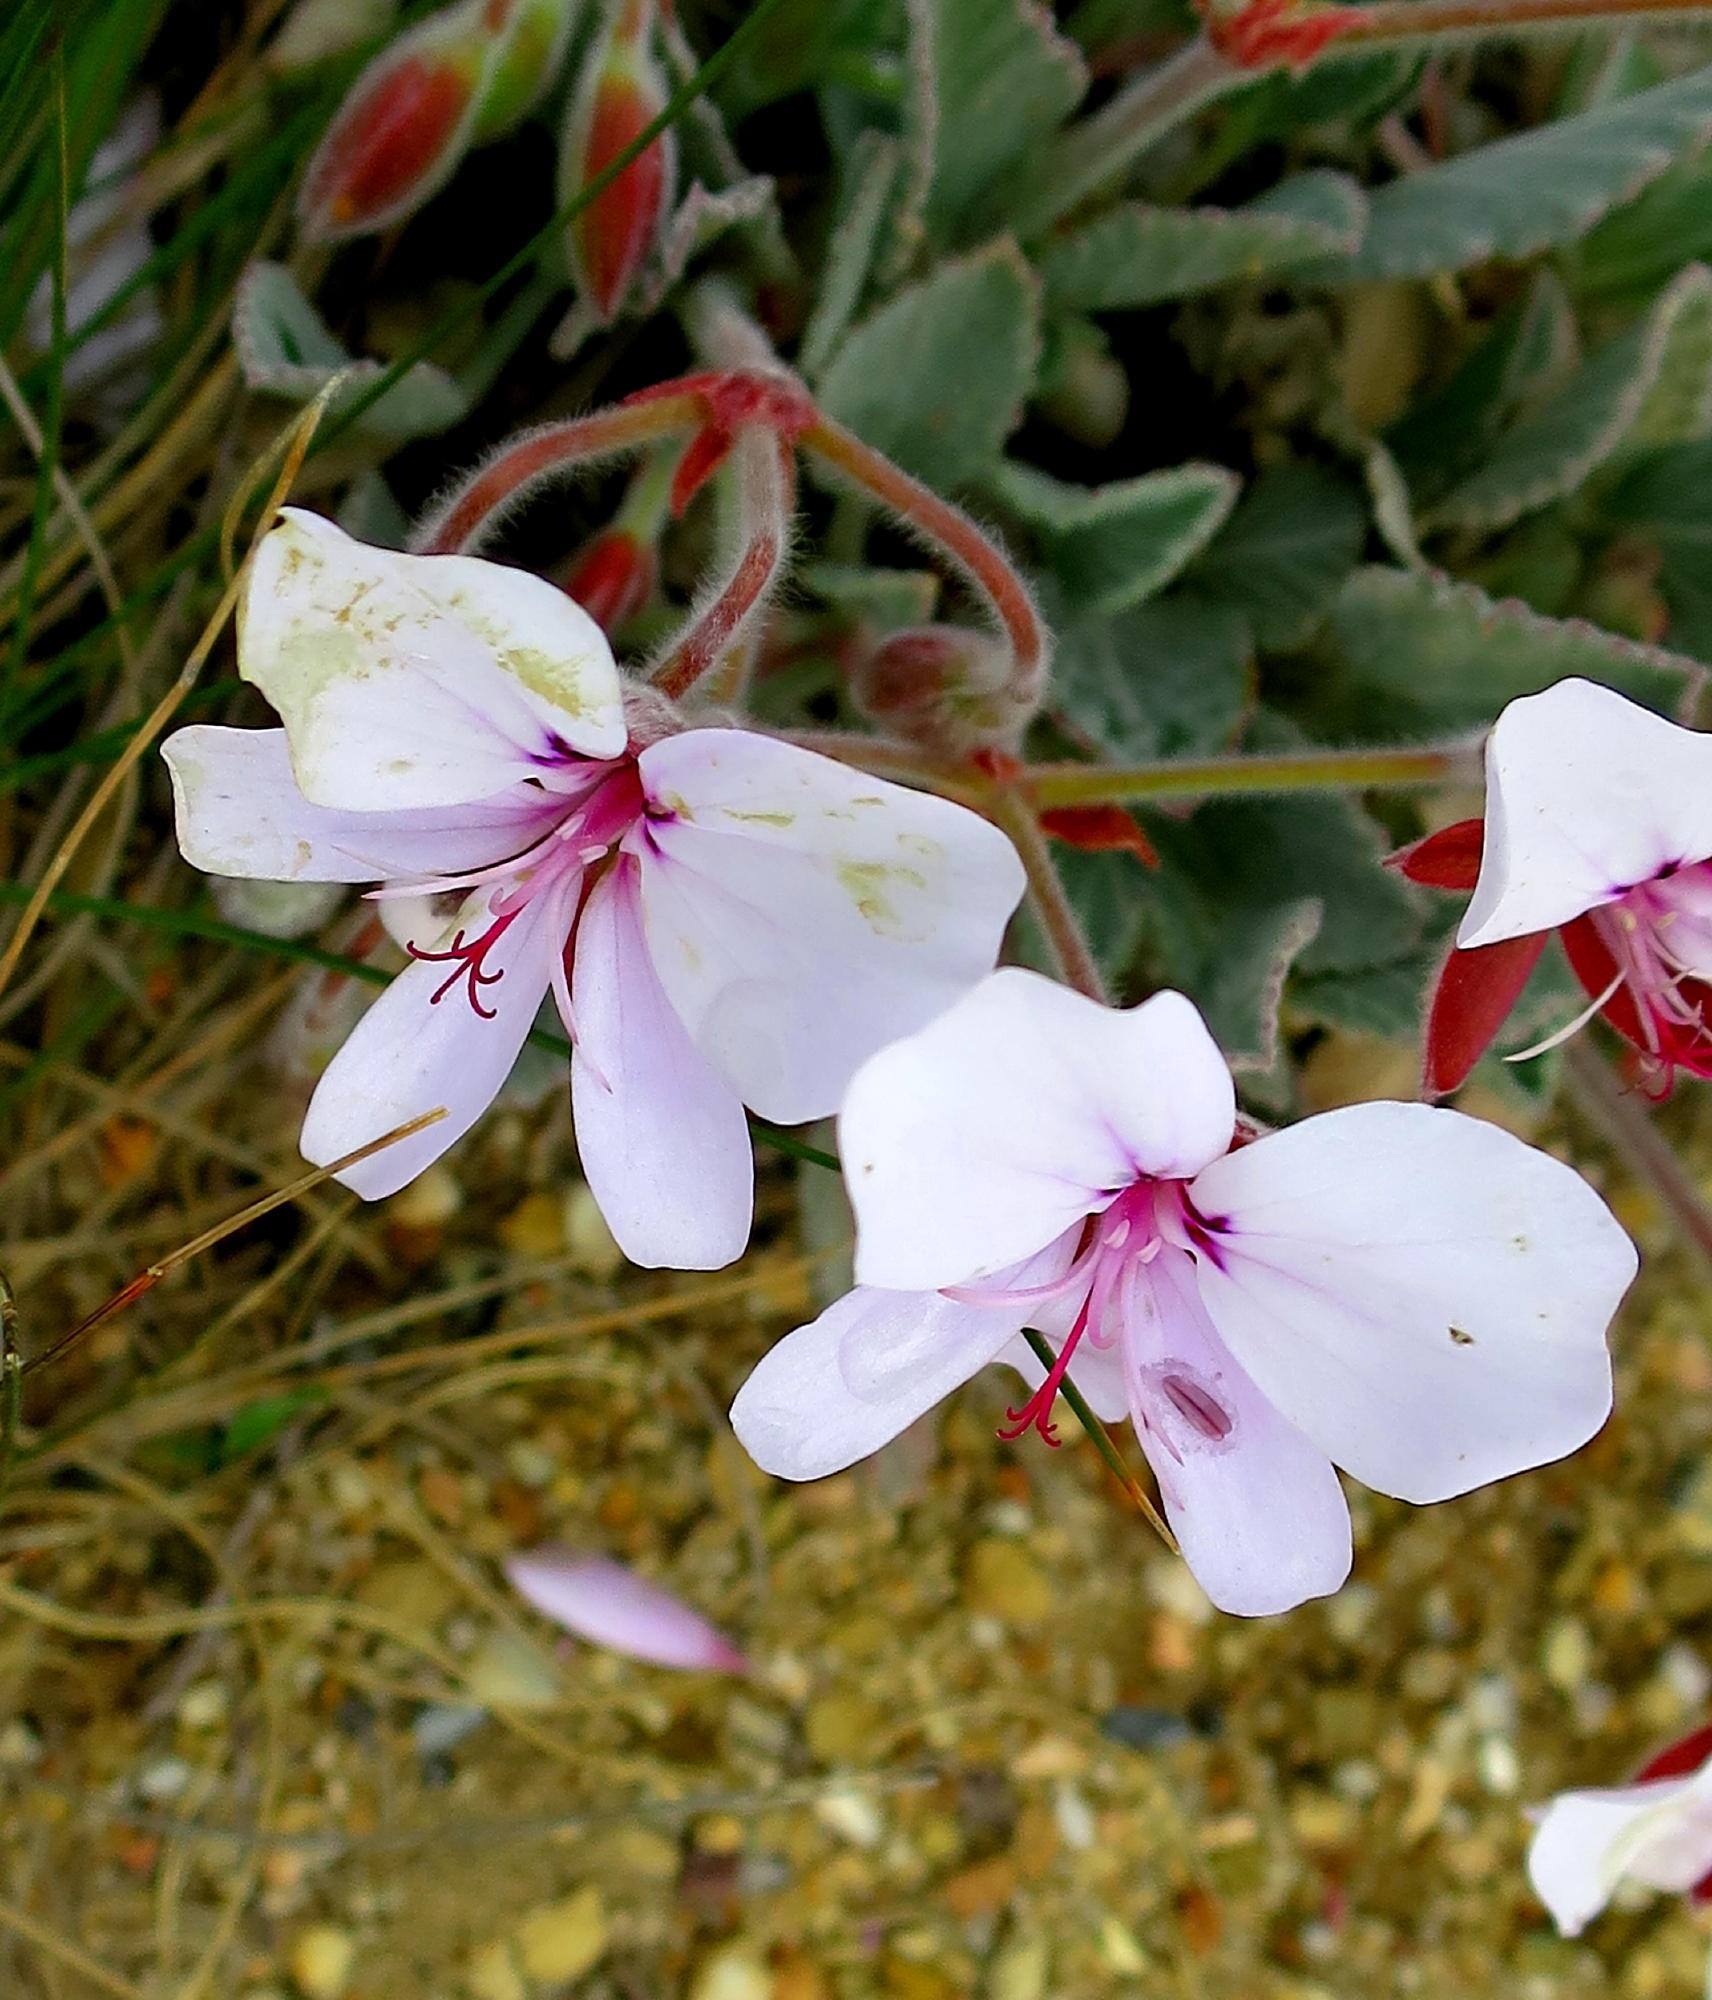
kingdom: Plantae
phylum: Tracheophyta
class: Magnoliopsida
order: Geraniales
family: Geraniaceae
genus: Pelargonium
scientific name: Pelargonium ovale
